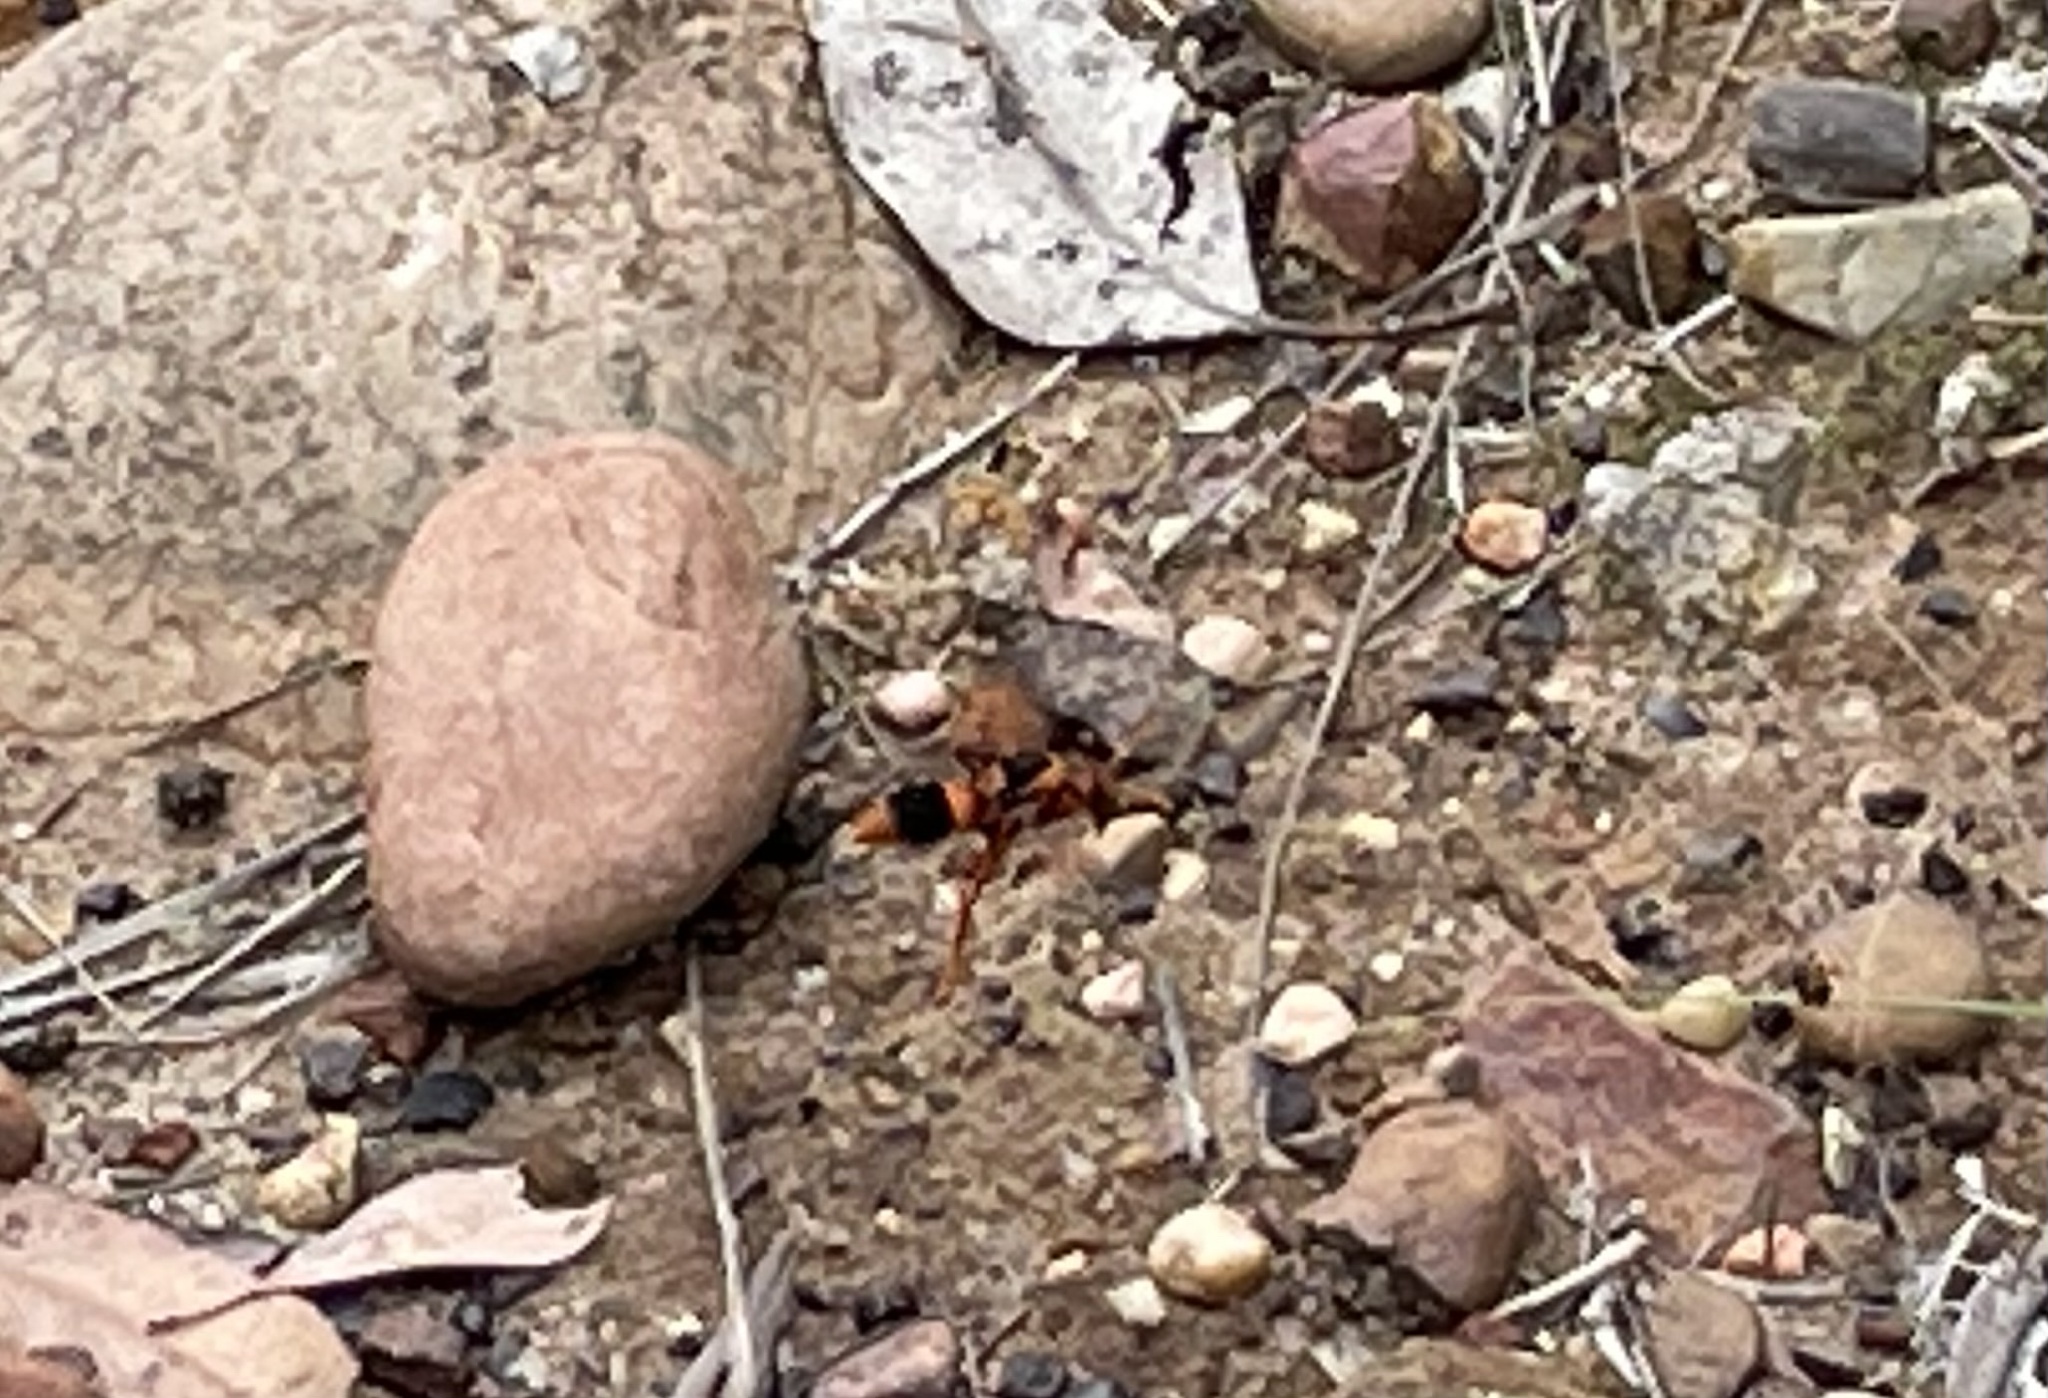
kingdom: Animalia
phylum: Arthropoda
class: Insecta
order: Hymenoptera
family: Eumenidae
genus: Abispa
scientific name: Abispa ephippium
